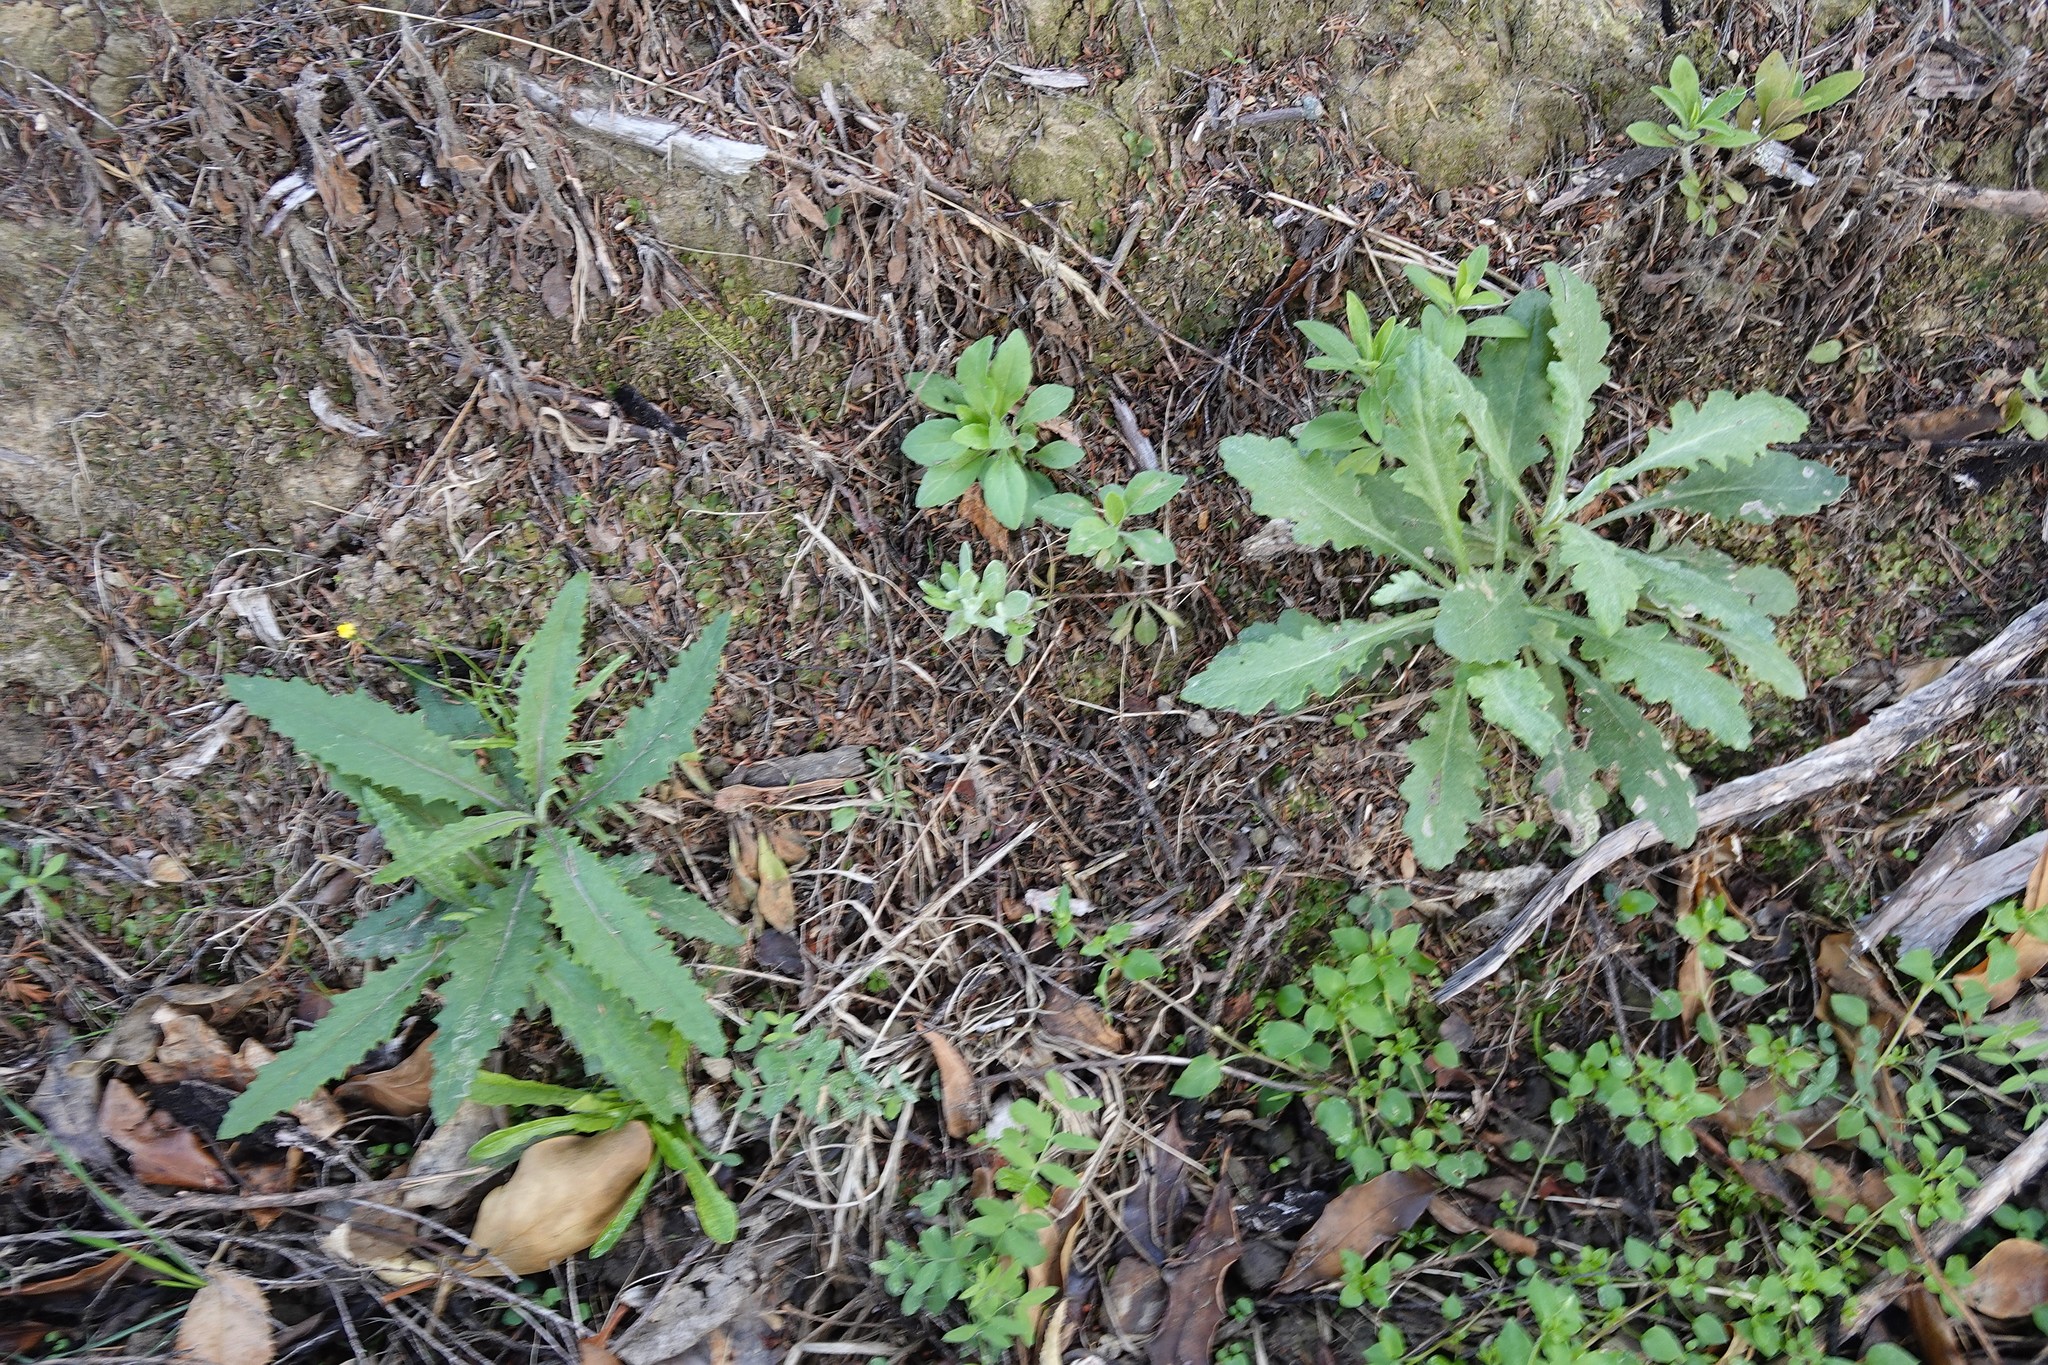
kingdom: Plantae
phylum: Tracheophyta
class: Magnoliopsida
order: Asterales
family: Asteraceae
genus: Senecio
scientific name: Senecio minimus
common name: Toothed fireweed
